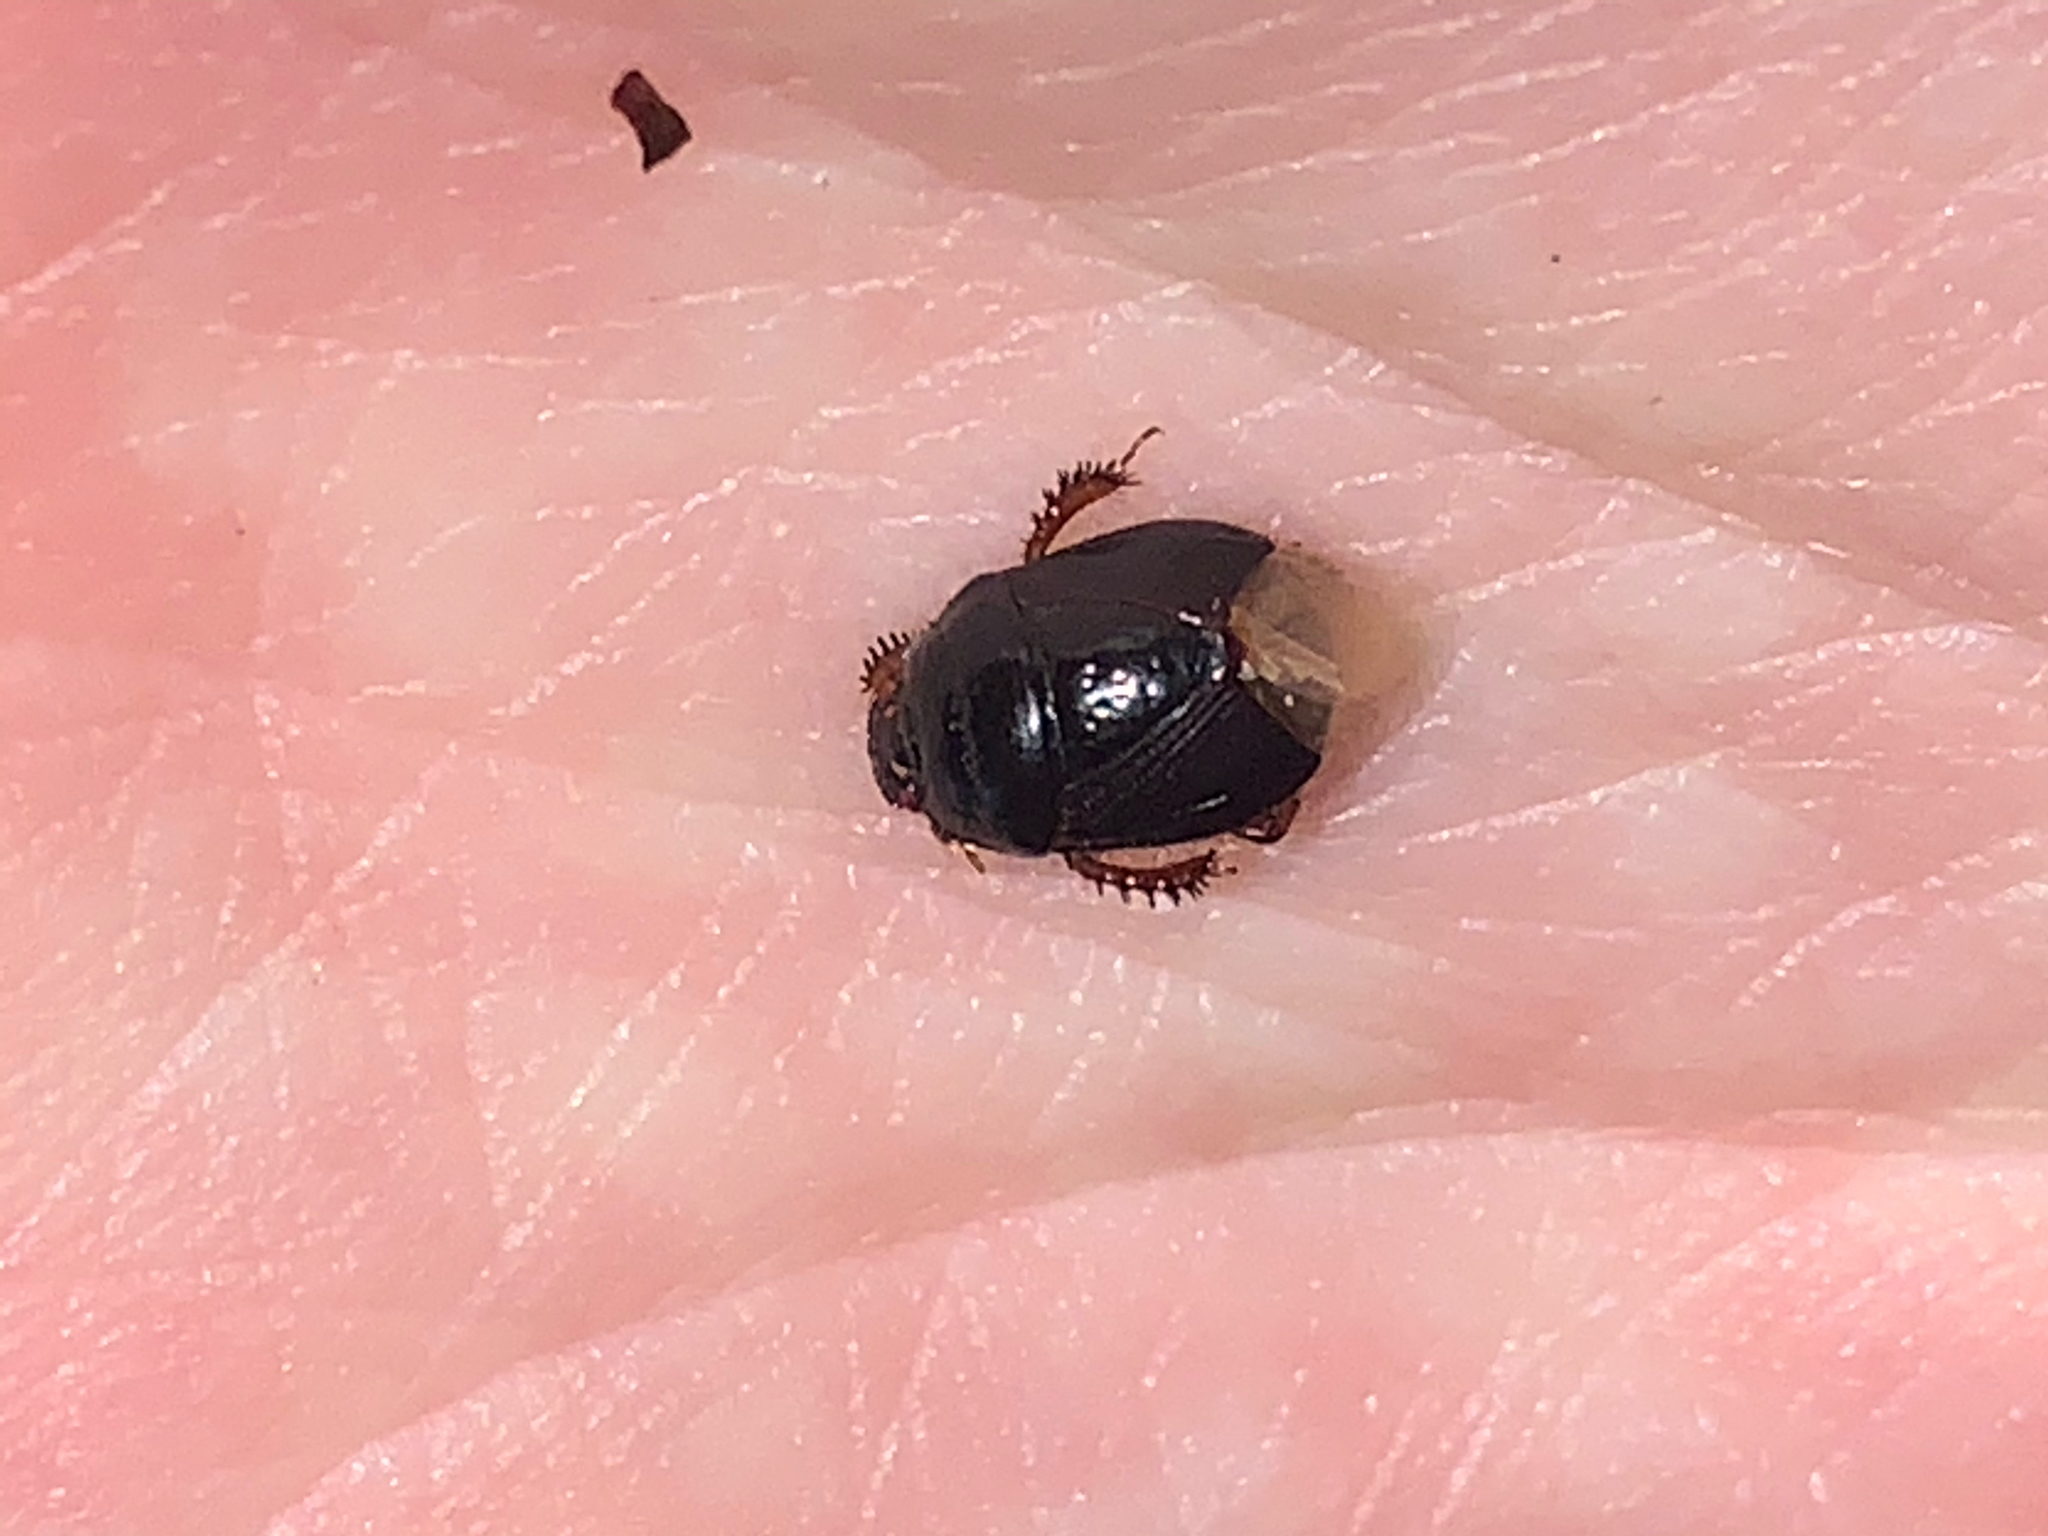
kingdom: Animalia
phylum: Arthropoda
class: Insecta
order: Hemiptera
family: Cydnidae
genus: Cyrtomenus
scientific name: Cyrtomenus ciliatus
